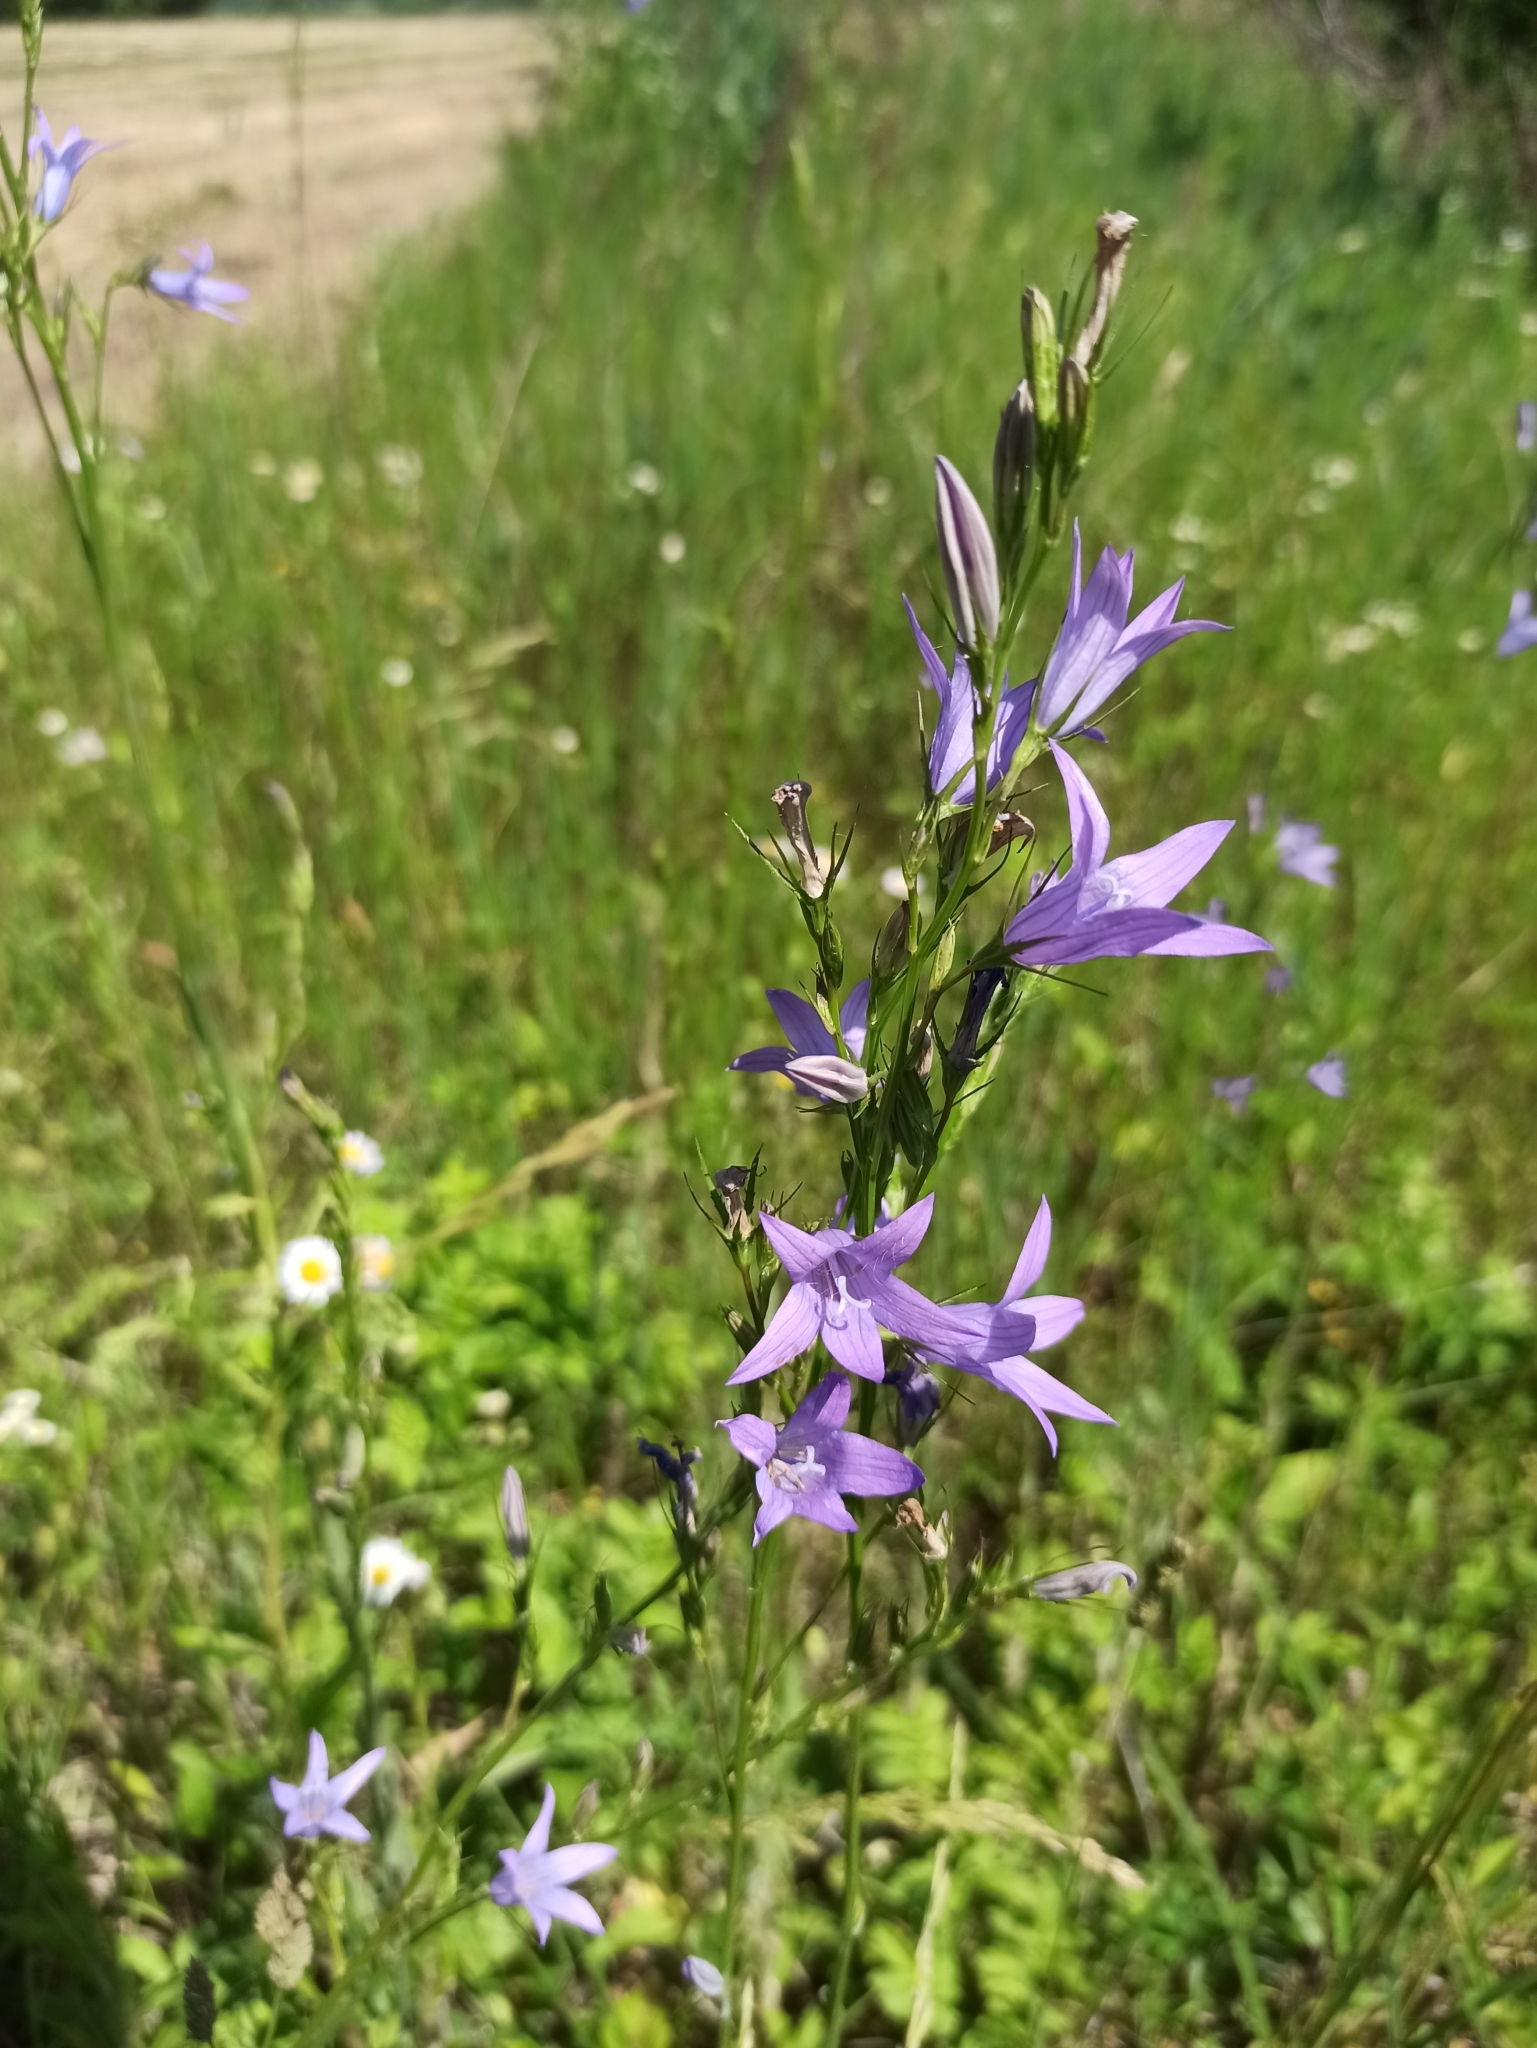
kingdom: Plantae
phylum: Tracheophyta
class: Magnoliopsida
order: Asterales
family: Campanulaceae
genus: Campanula
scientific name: Campanula rapunculus
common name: Rampion bellflower
